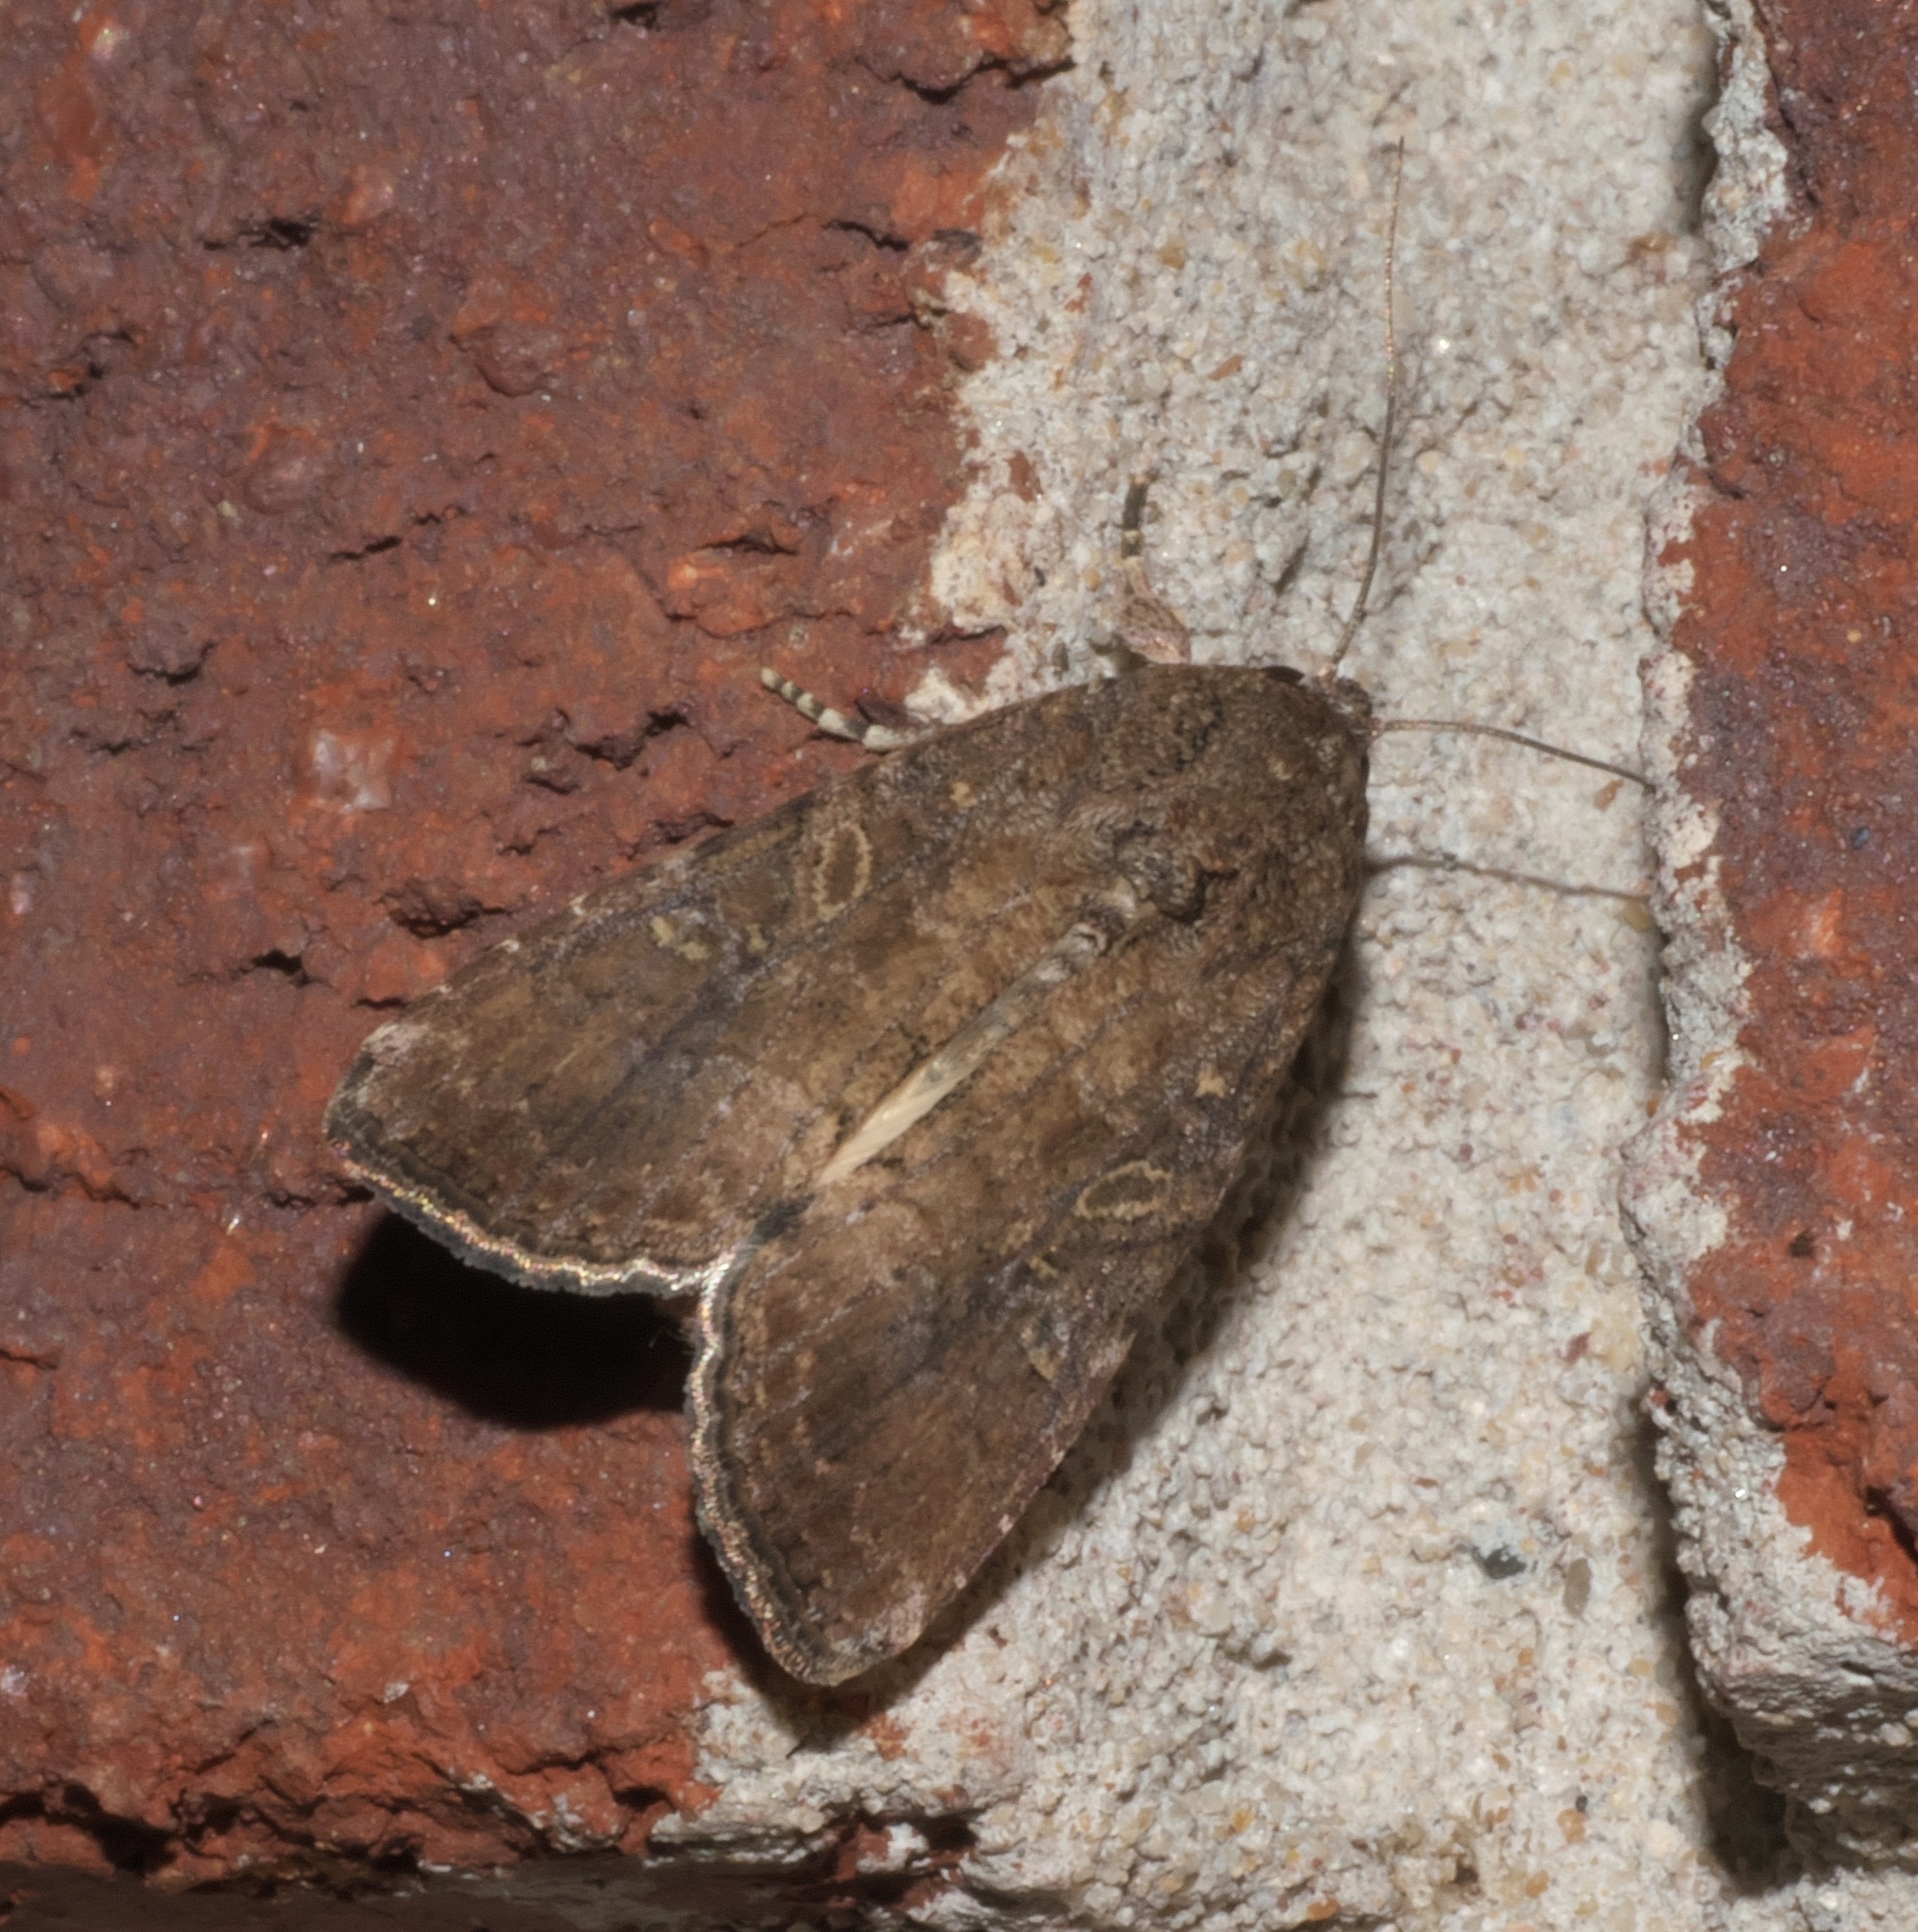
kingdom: Animalia
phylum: Arthropoda
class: Insecta
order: Lepidoptera
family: Noctuidae
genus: Spodoptera
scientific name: Spodoptera frugiperda
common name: Fall armyworm
